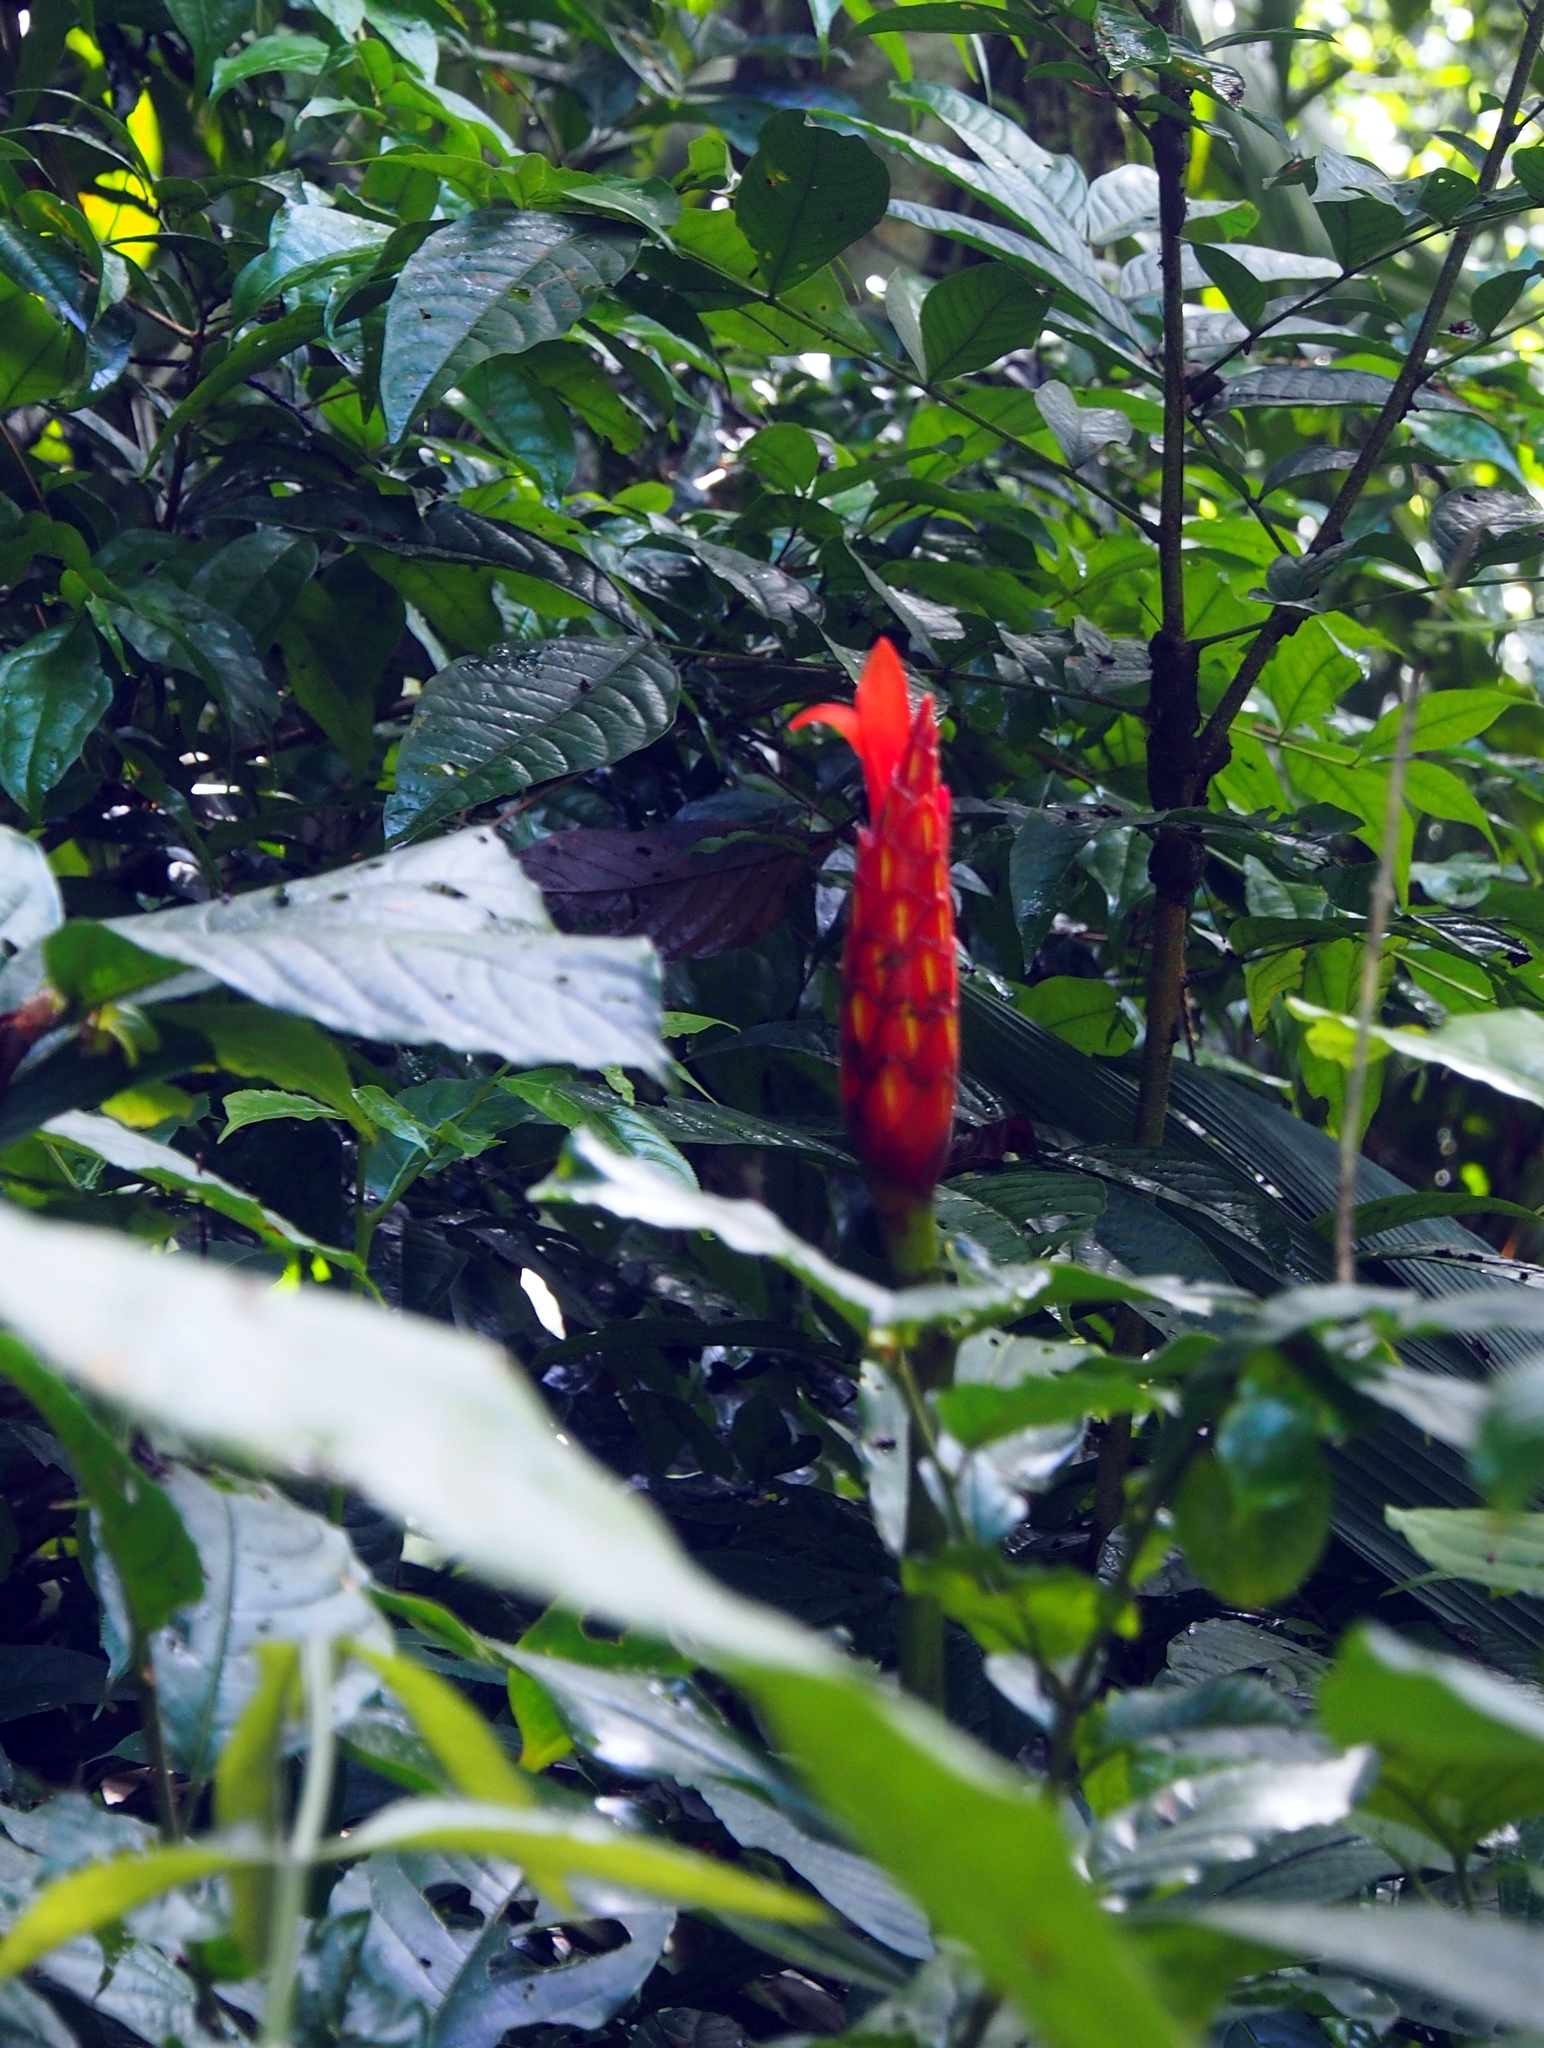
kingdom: Plantae
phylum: Tracheophyta
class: Liliopsida
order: Zingiberales
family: Costaceae
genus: Costus
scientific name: Costus pulverulentus
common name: Spiral ginger
